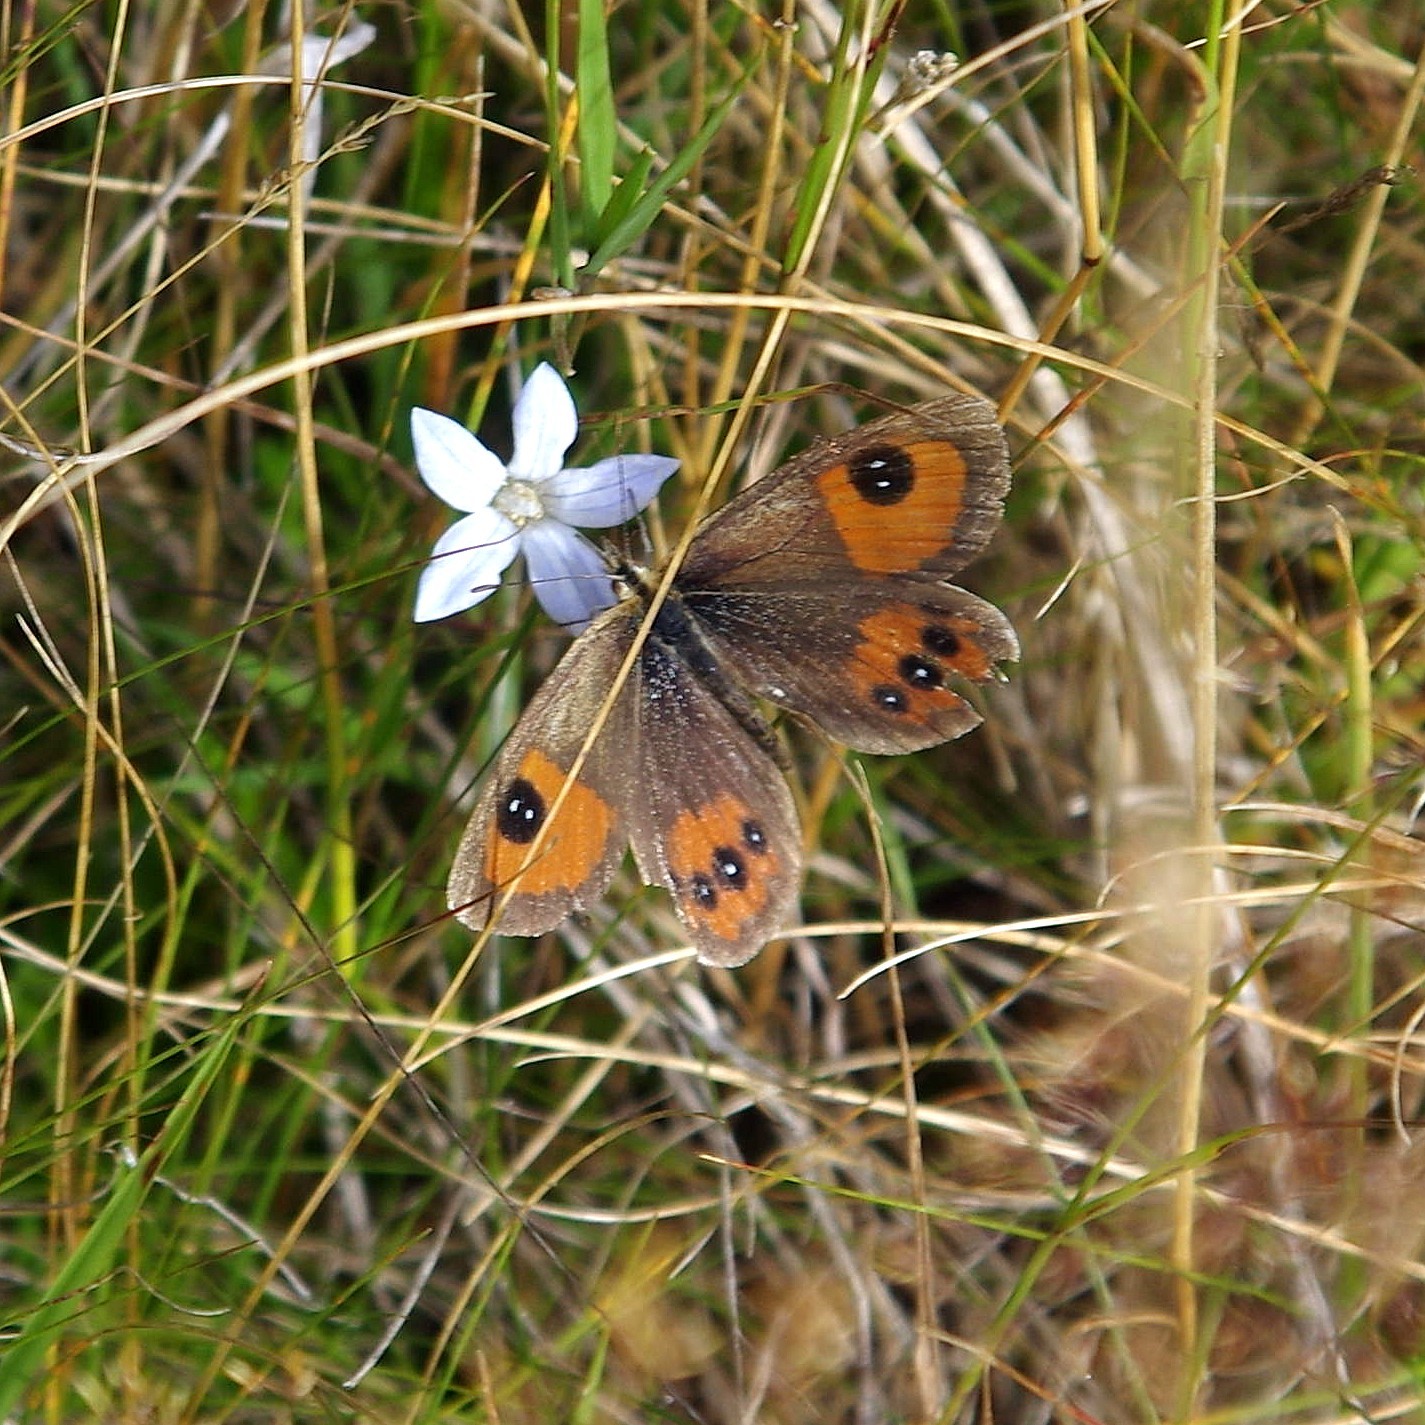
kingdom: Animalia
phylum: Arthropoda
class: Insecta
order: Lepidoptera
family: Nymphalidae
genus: Argyrophenga
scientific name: Argyrophenga antipodum
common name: Common tussock butterfly
